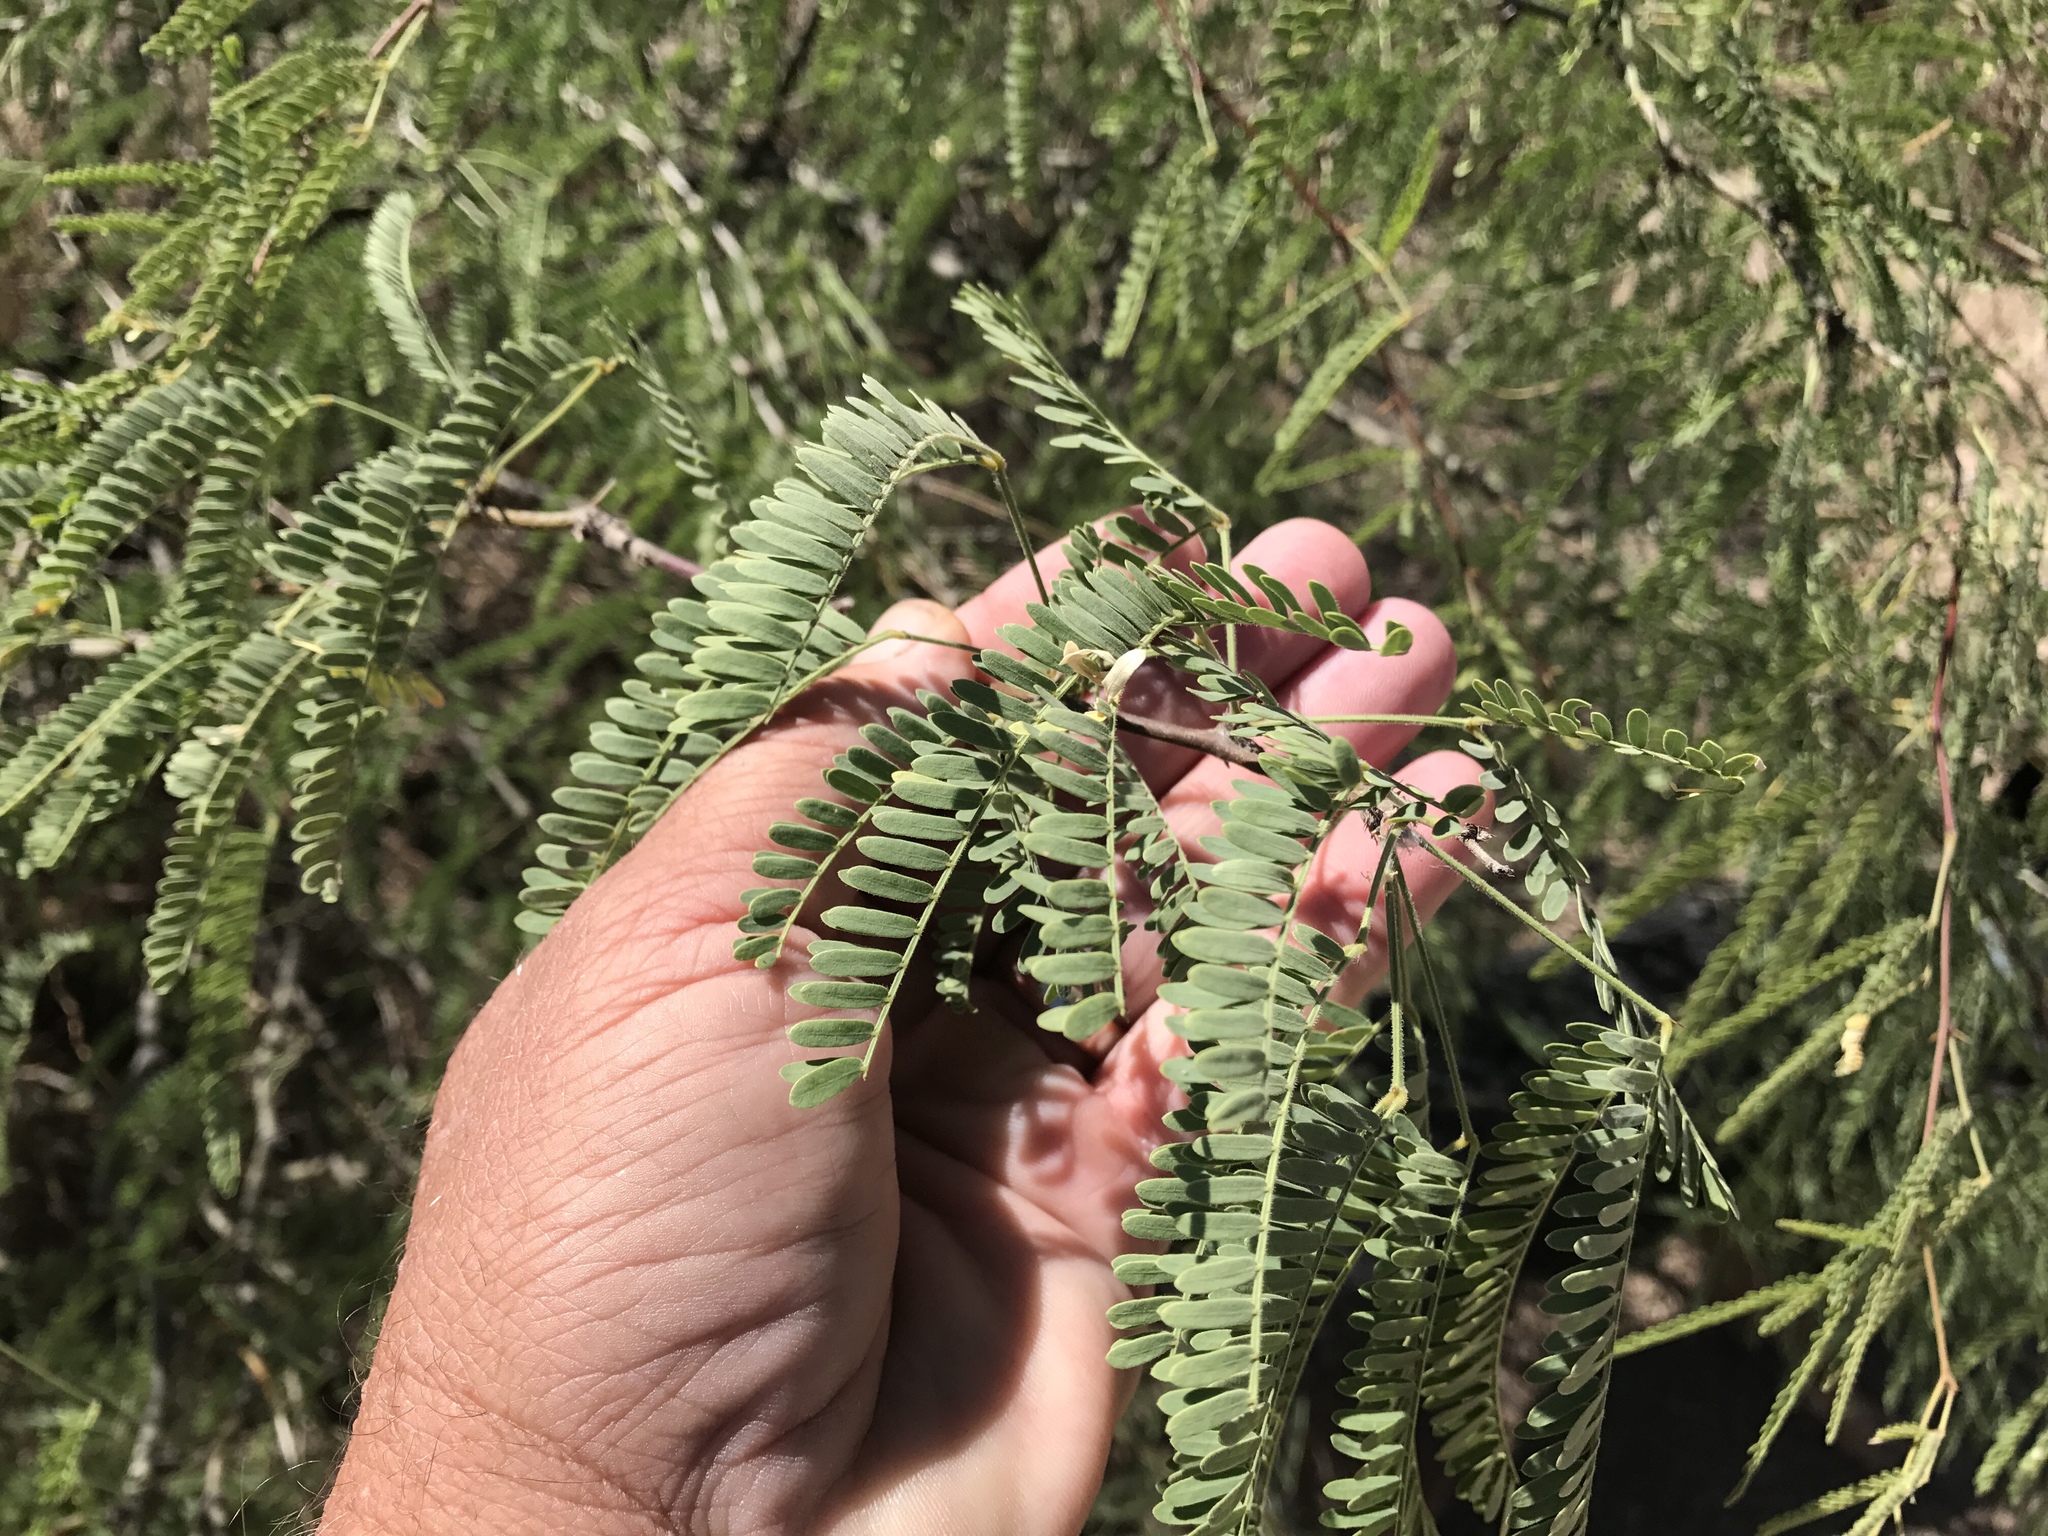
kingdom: Plantae
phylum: Tracheophyta
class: Magnoliopsida
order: Fabales
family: Fabaceae
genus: Prosopis
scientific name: Prosopis velutina
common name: Velvet mesquite
